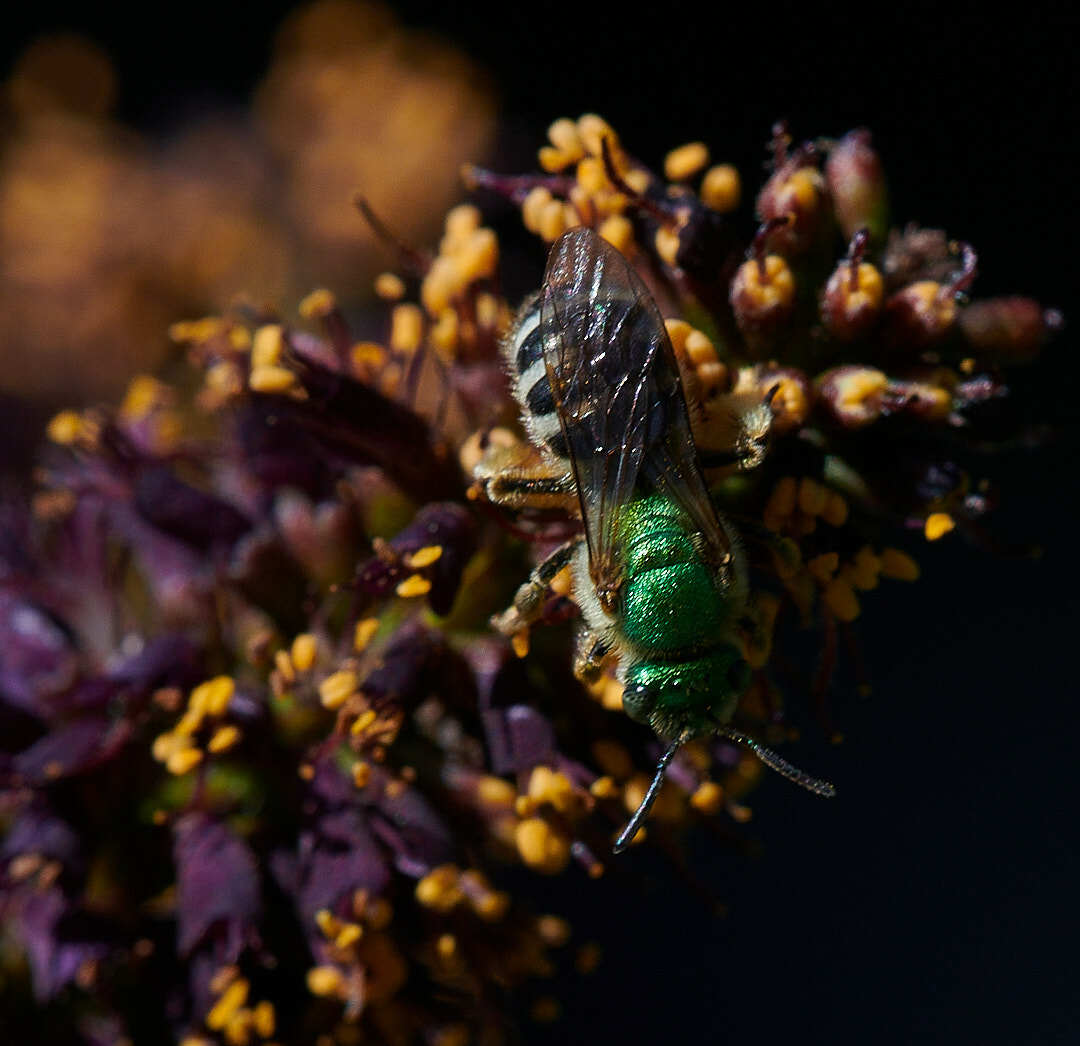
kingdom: Animalia
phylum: Arthropoda
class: Insecta
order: Hymenoptera
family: Halictidae
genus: Agapostemon
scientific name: Agapostemon virescens
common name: Bicolored striped sweat bee
